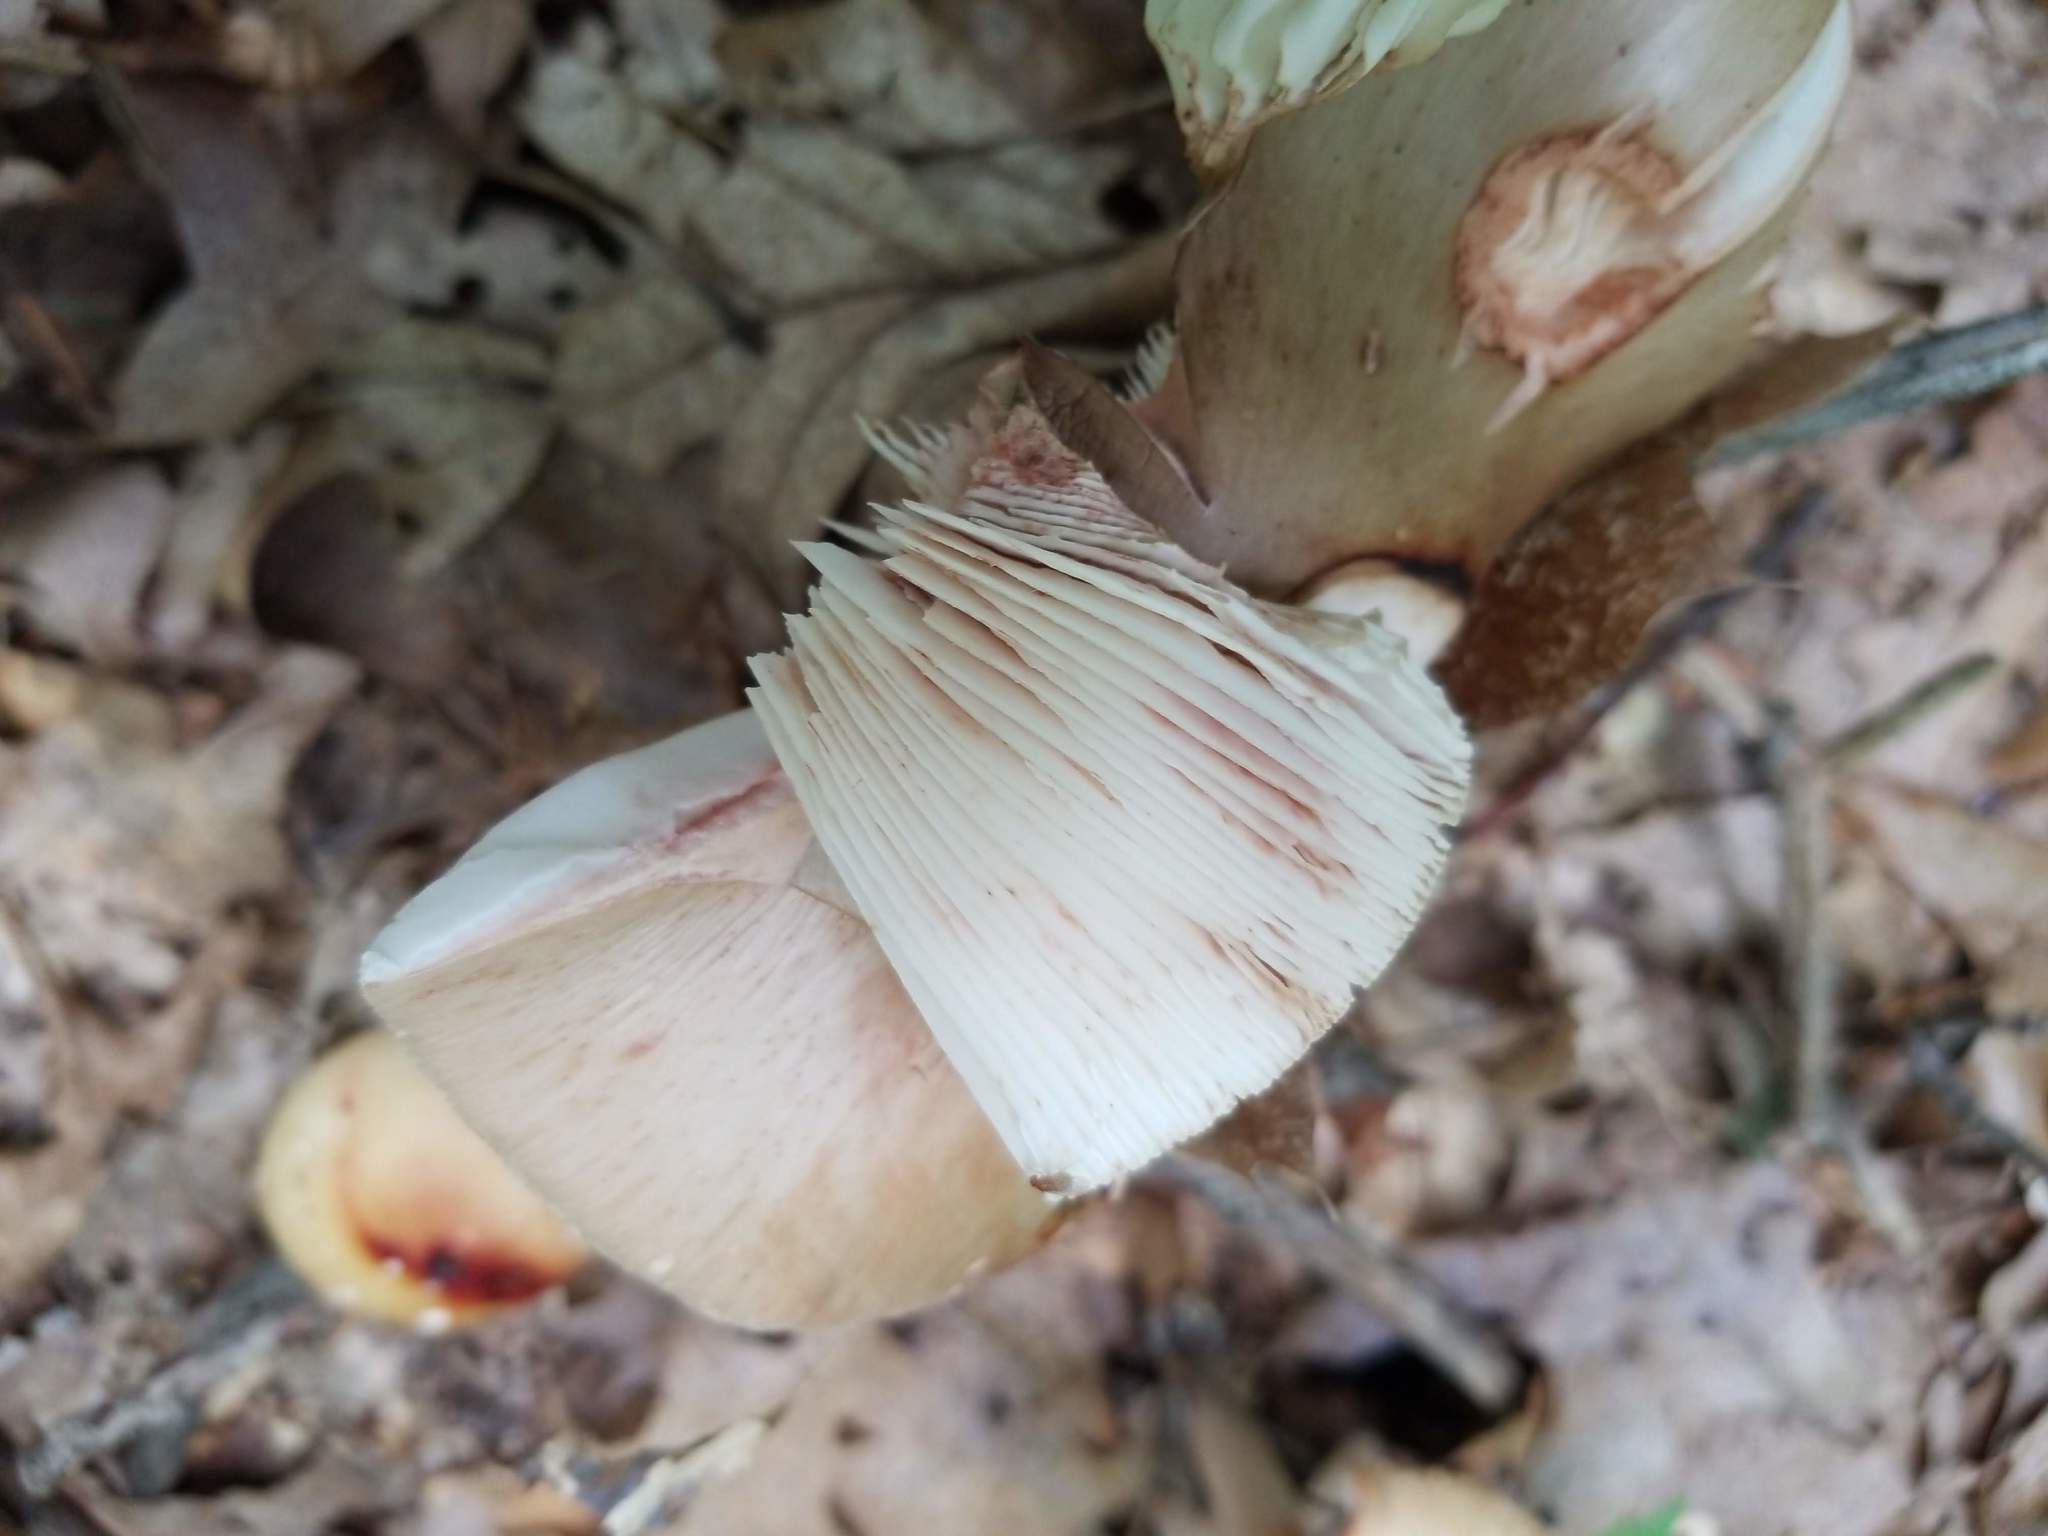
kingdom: Fungi
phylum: Basidiomycota
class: Agaricomycetes
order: Agaricales
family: Amanitaceae
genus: Amanita
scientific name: Amanita rubescens
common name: Blusher
